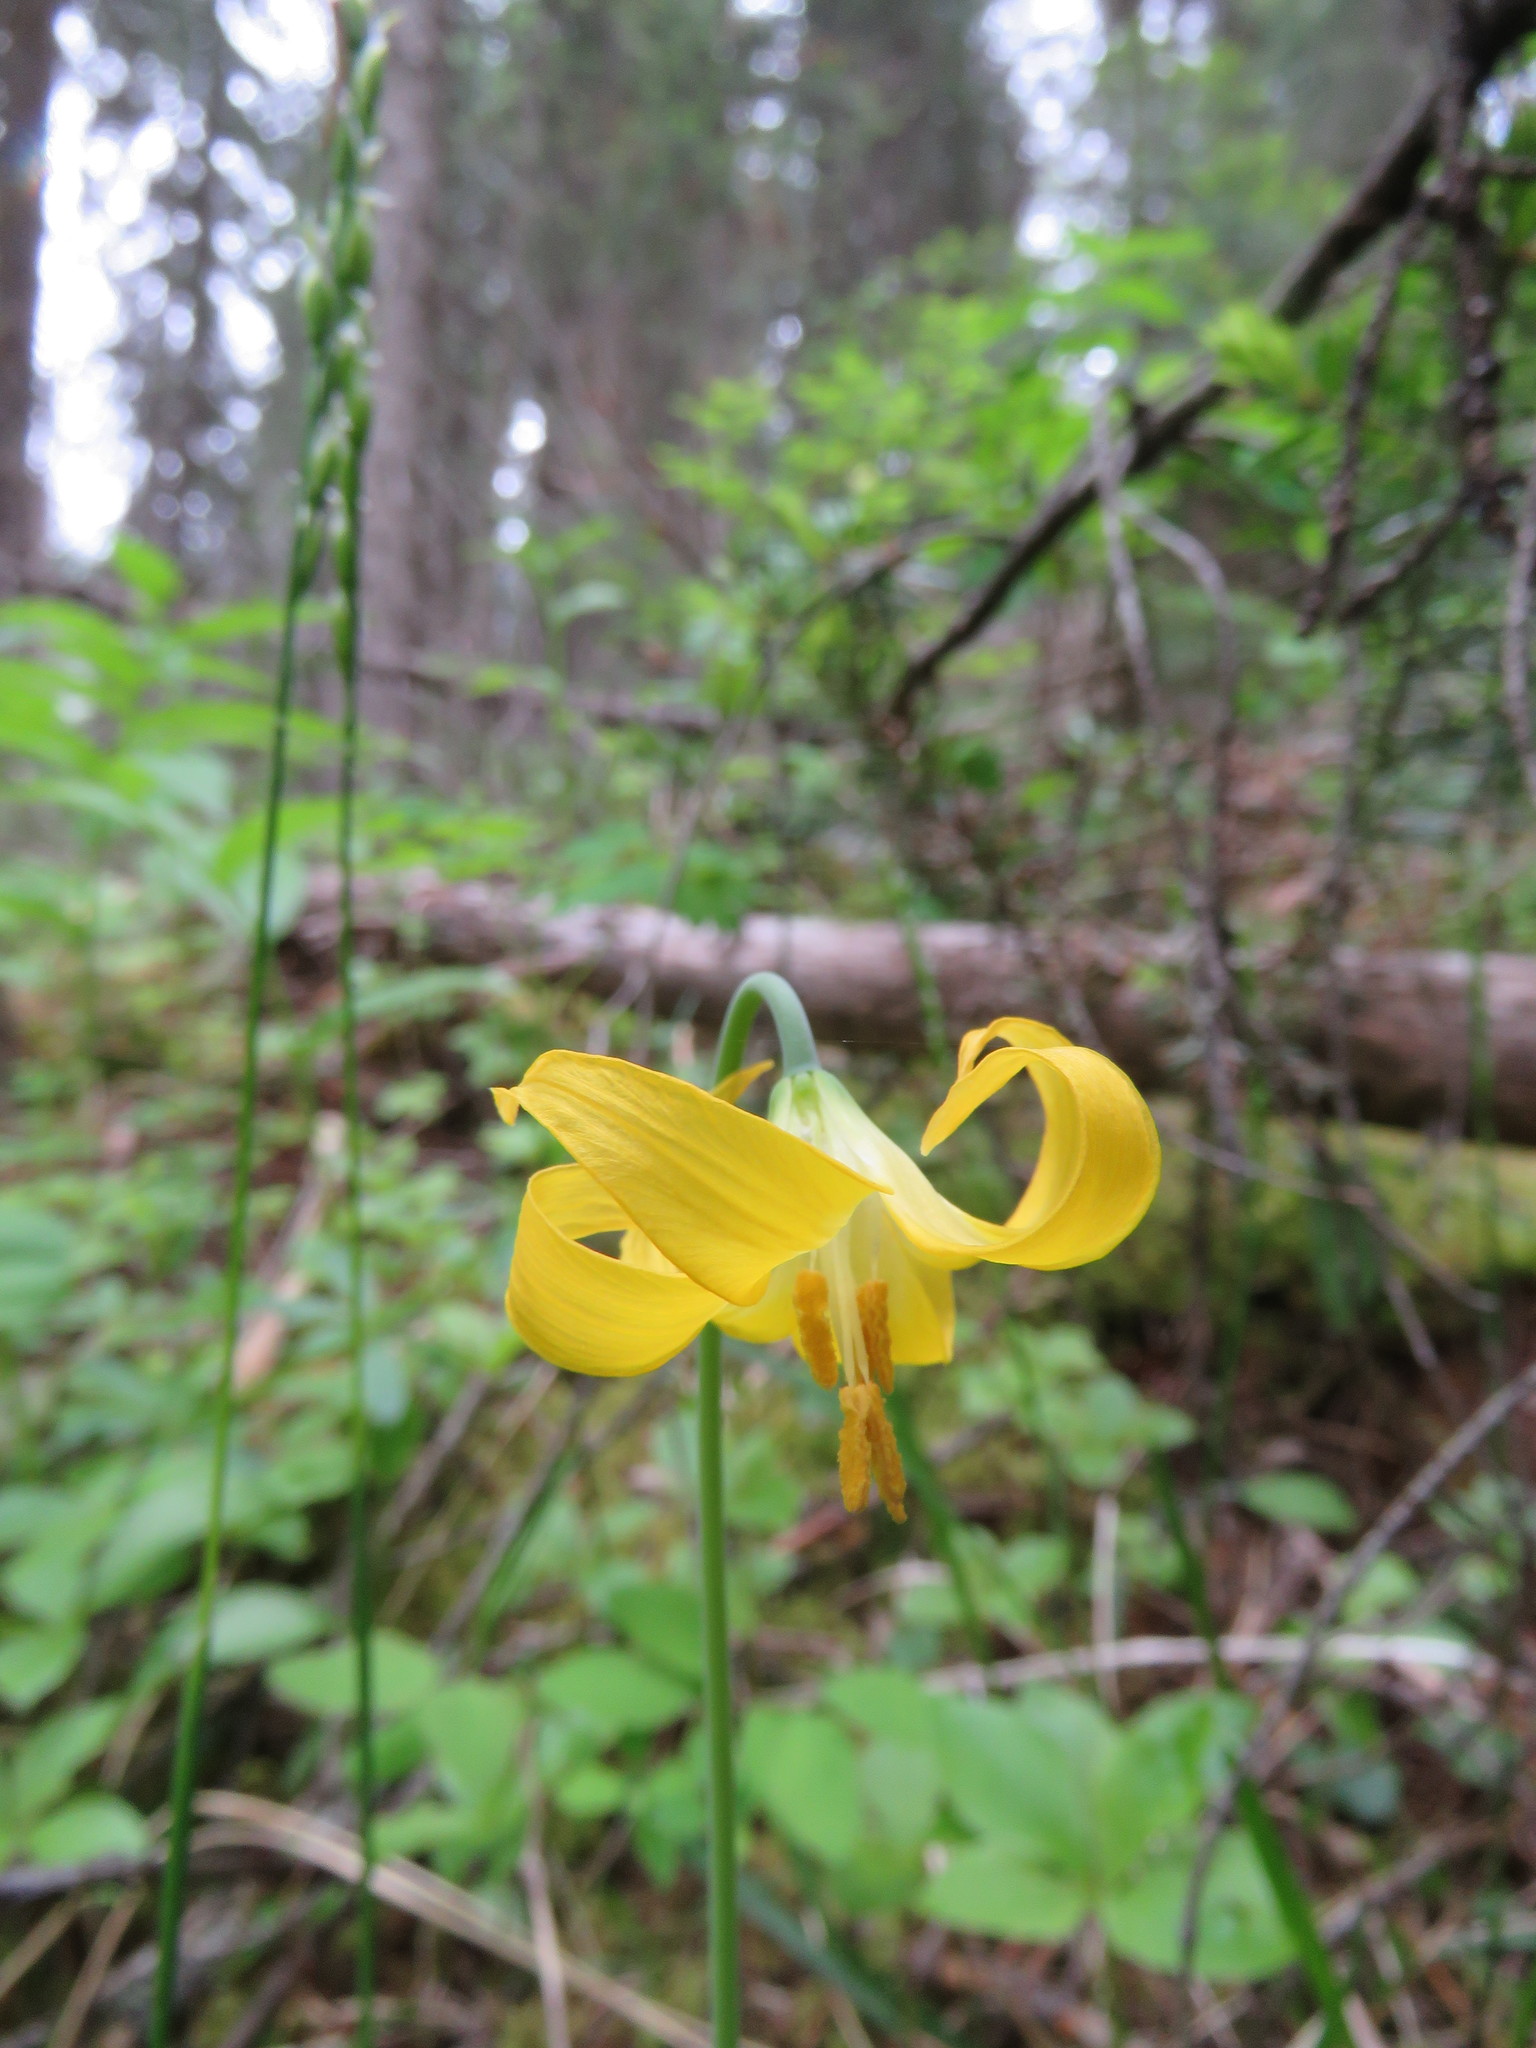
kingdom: Plantae
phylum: Tracheophyta
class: Liliopsida
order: Liliales
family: Liliaceae
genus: Erythronium
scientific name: Erythronium grandiflorum
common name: Avalanche-lily
